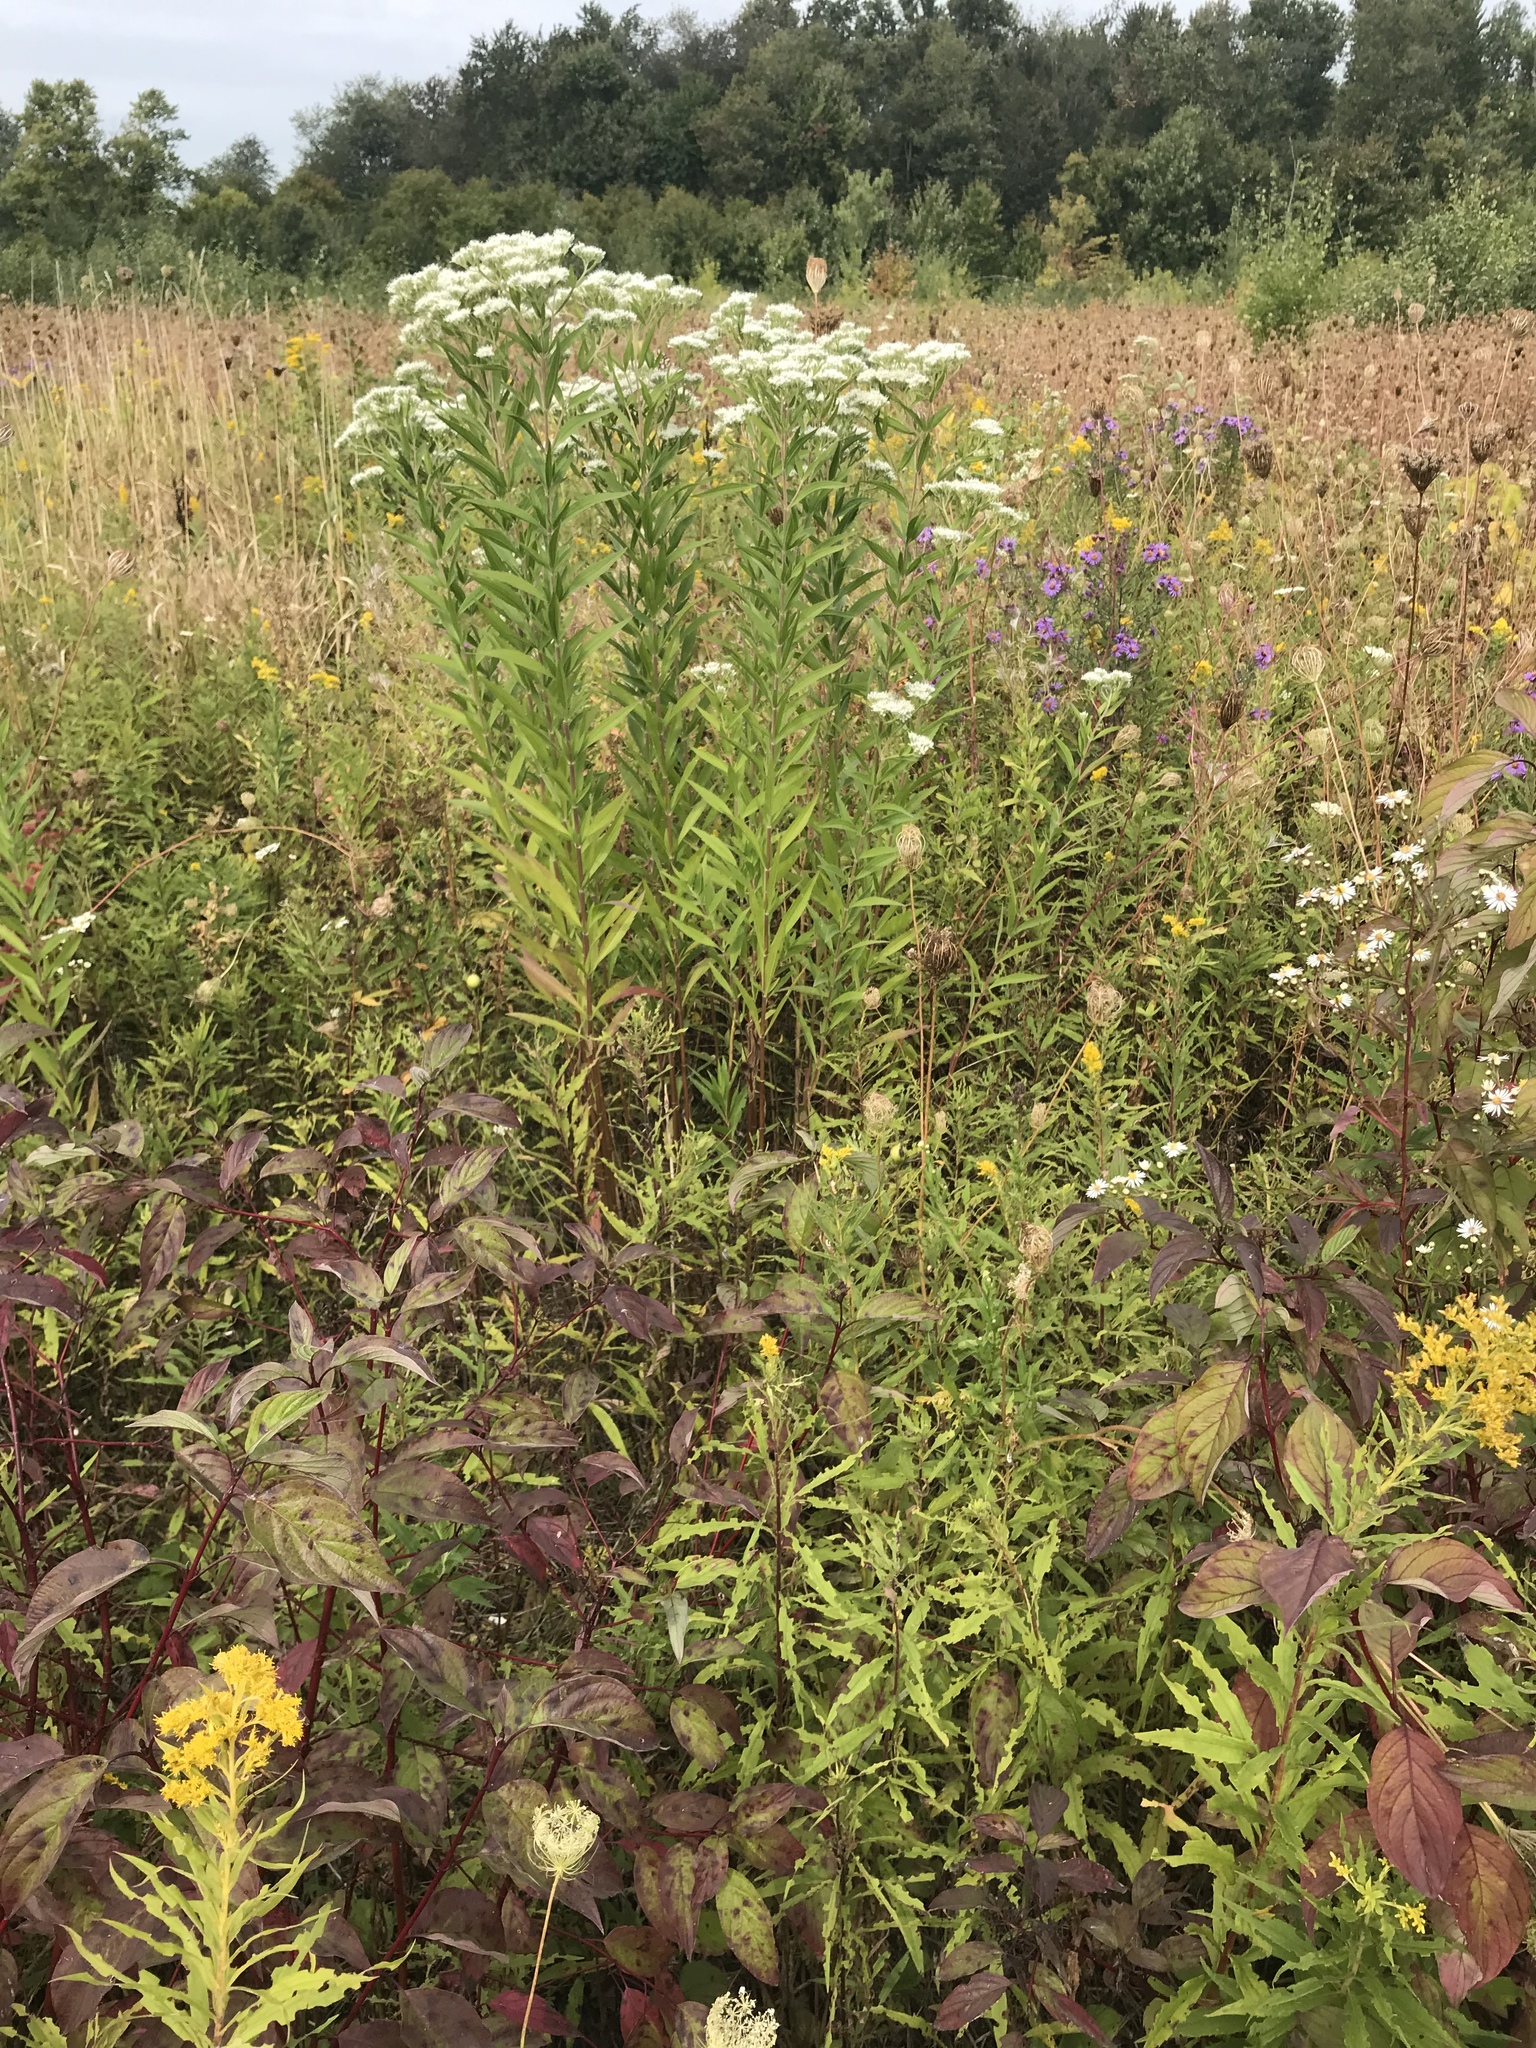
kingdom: Plantae
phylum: Tracheophyta
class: Magnoliopsida
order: Asterales
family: Asteraceae
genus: Eupatorium
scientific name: Eupatorium altissimum
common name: Tall thoroughwort
